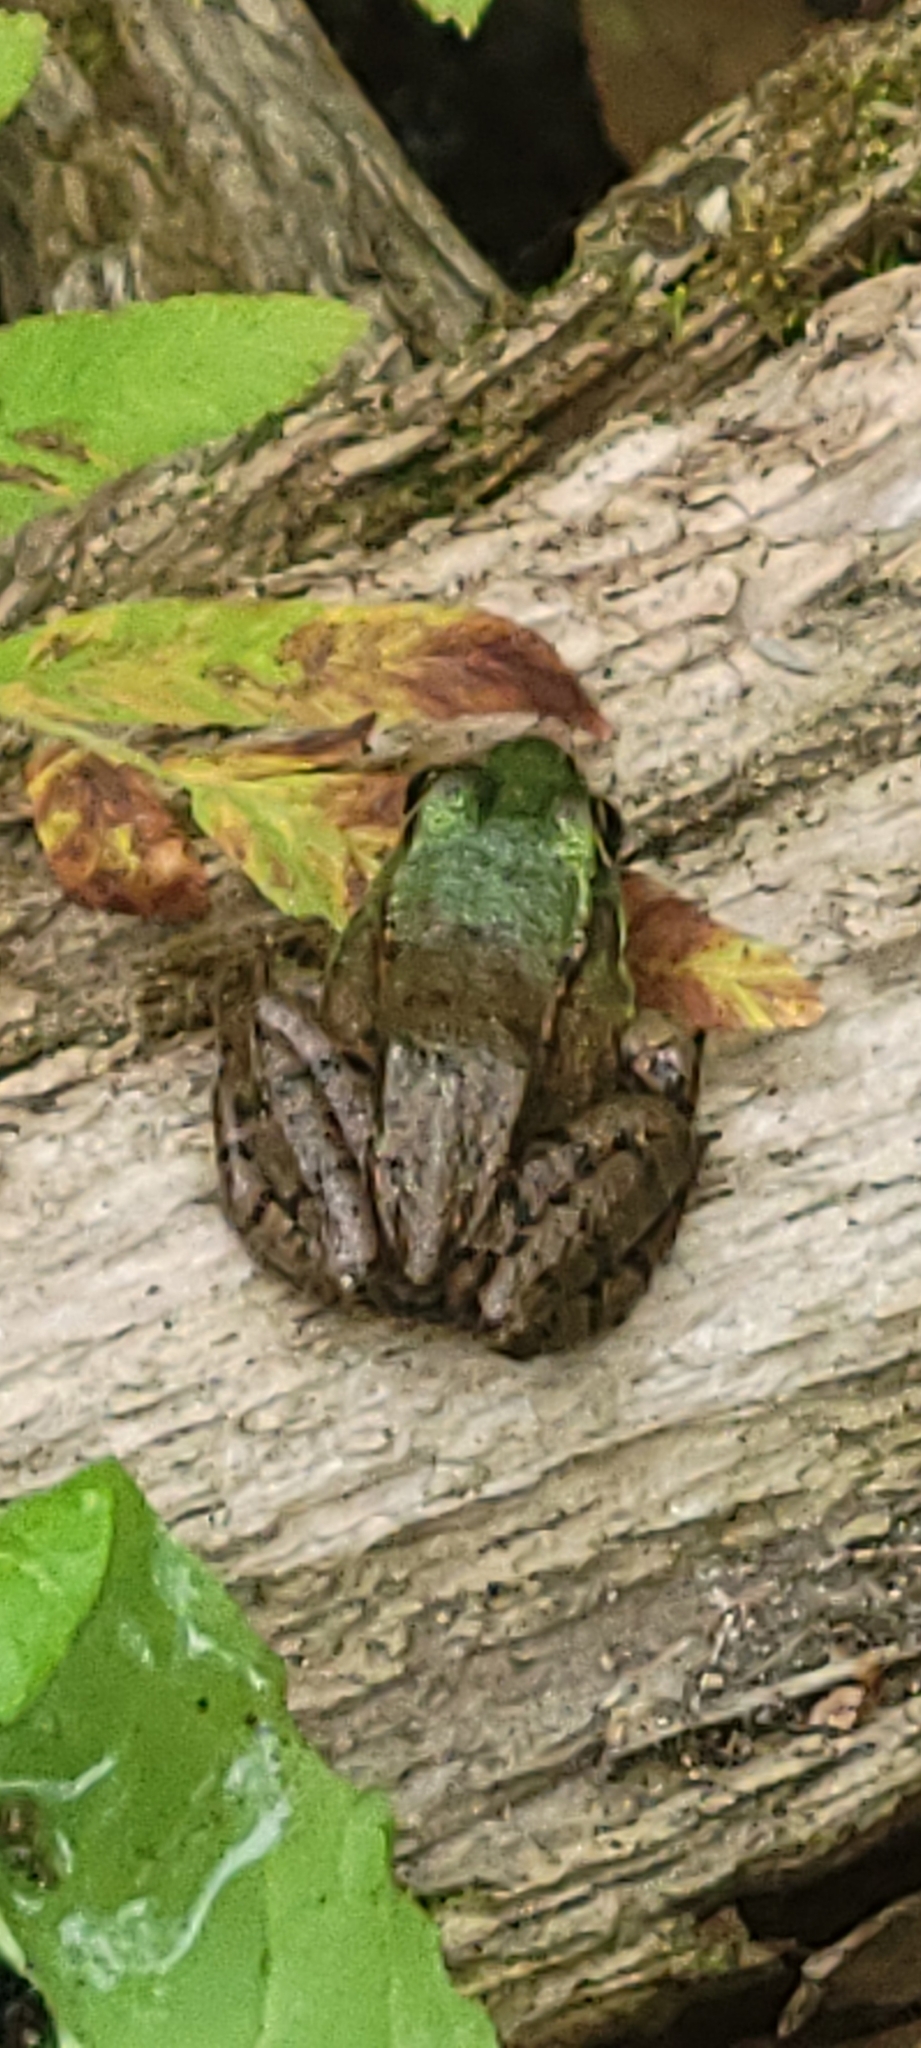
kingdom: Animalia
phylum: Chordata
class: Amphibia
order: Anura
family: Ranidae
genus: Lithobates
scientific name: Lithobates clamitans
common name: Green frog
